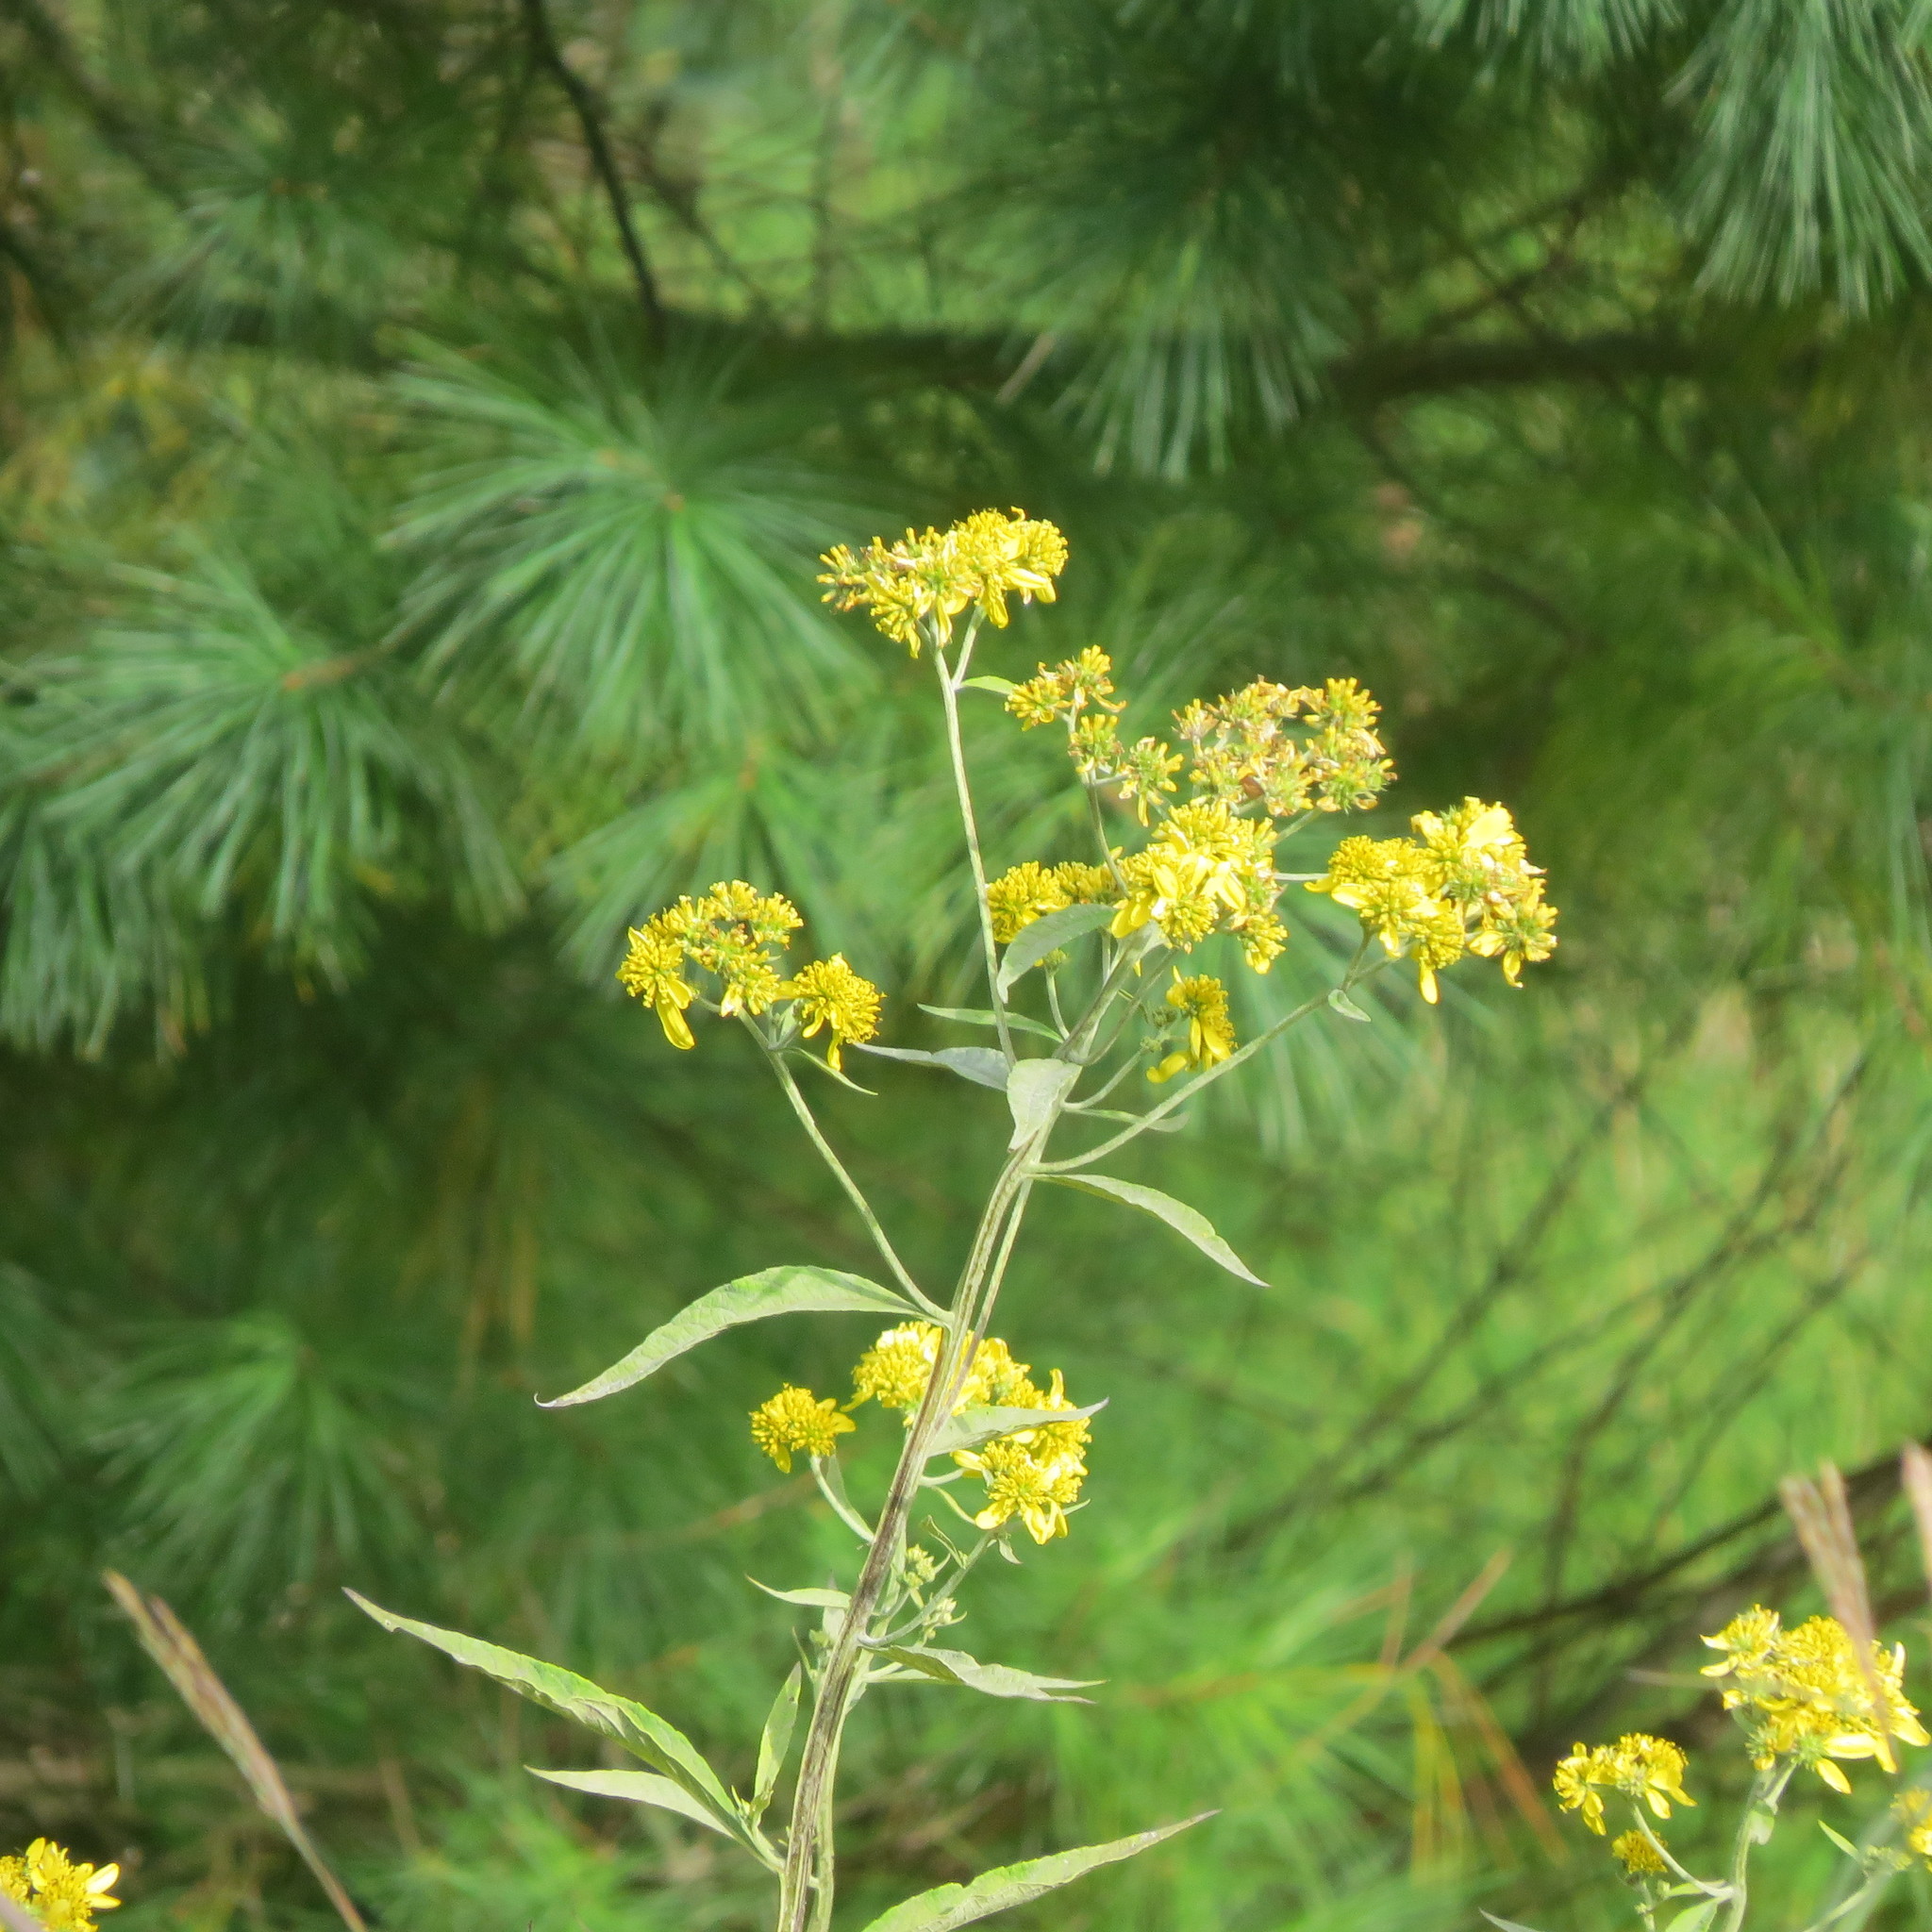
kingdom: Plantae
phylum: Tracheophyta
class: Magnoliopsida
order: Asterales
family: Asteraceae
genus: Verbesina
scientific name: Verbesina alternifolia
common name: Wingstem
